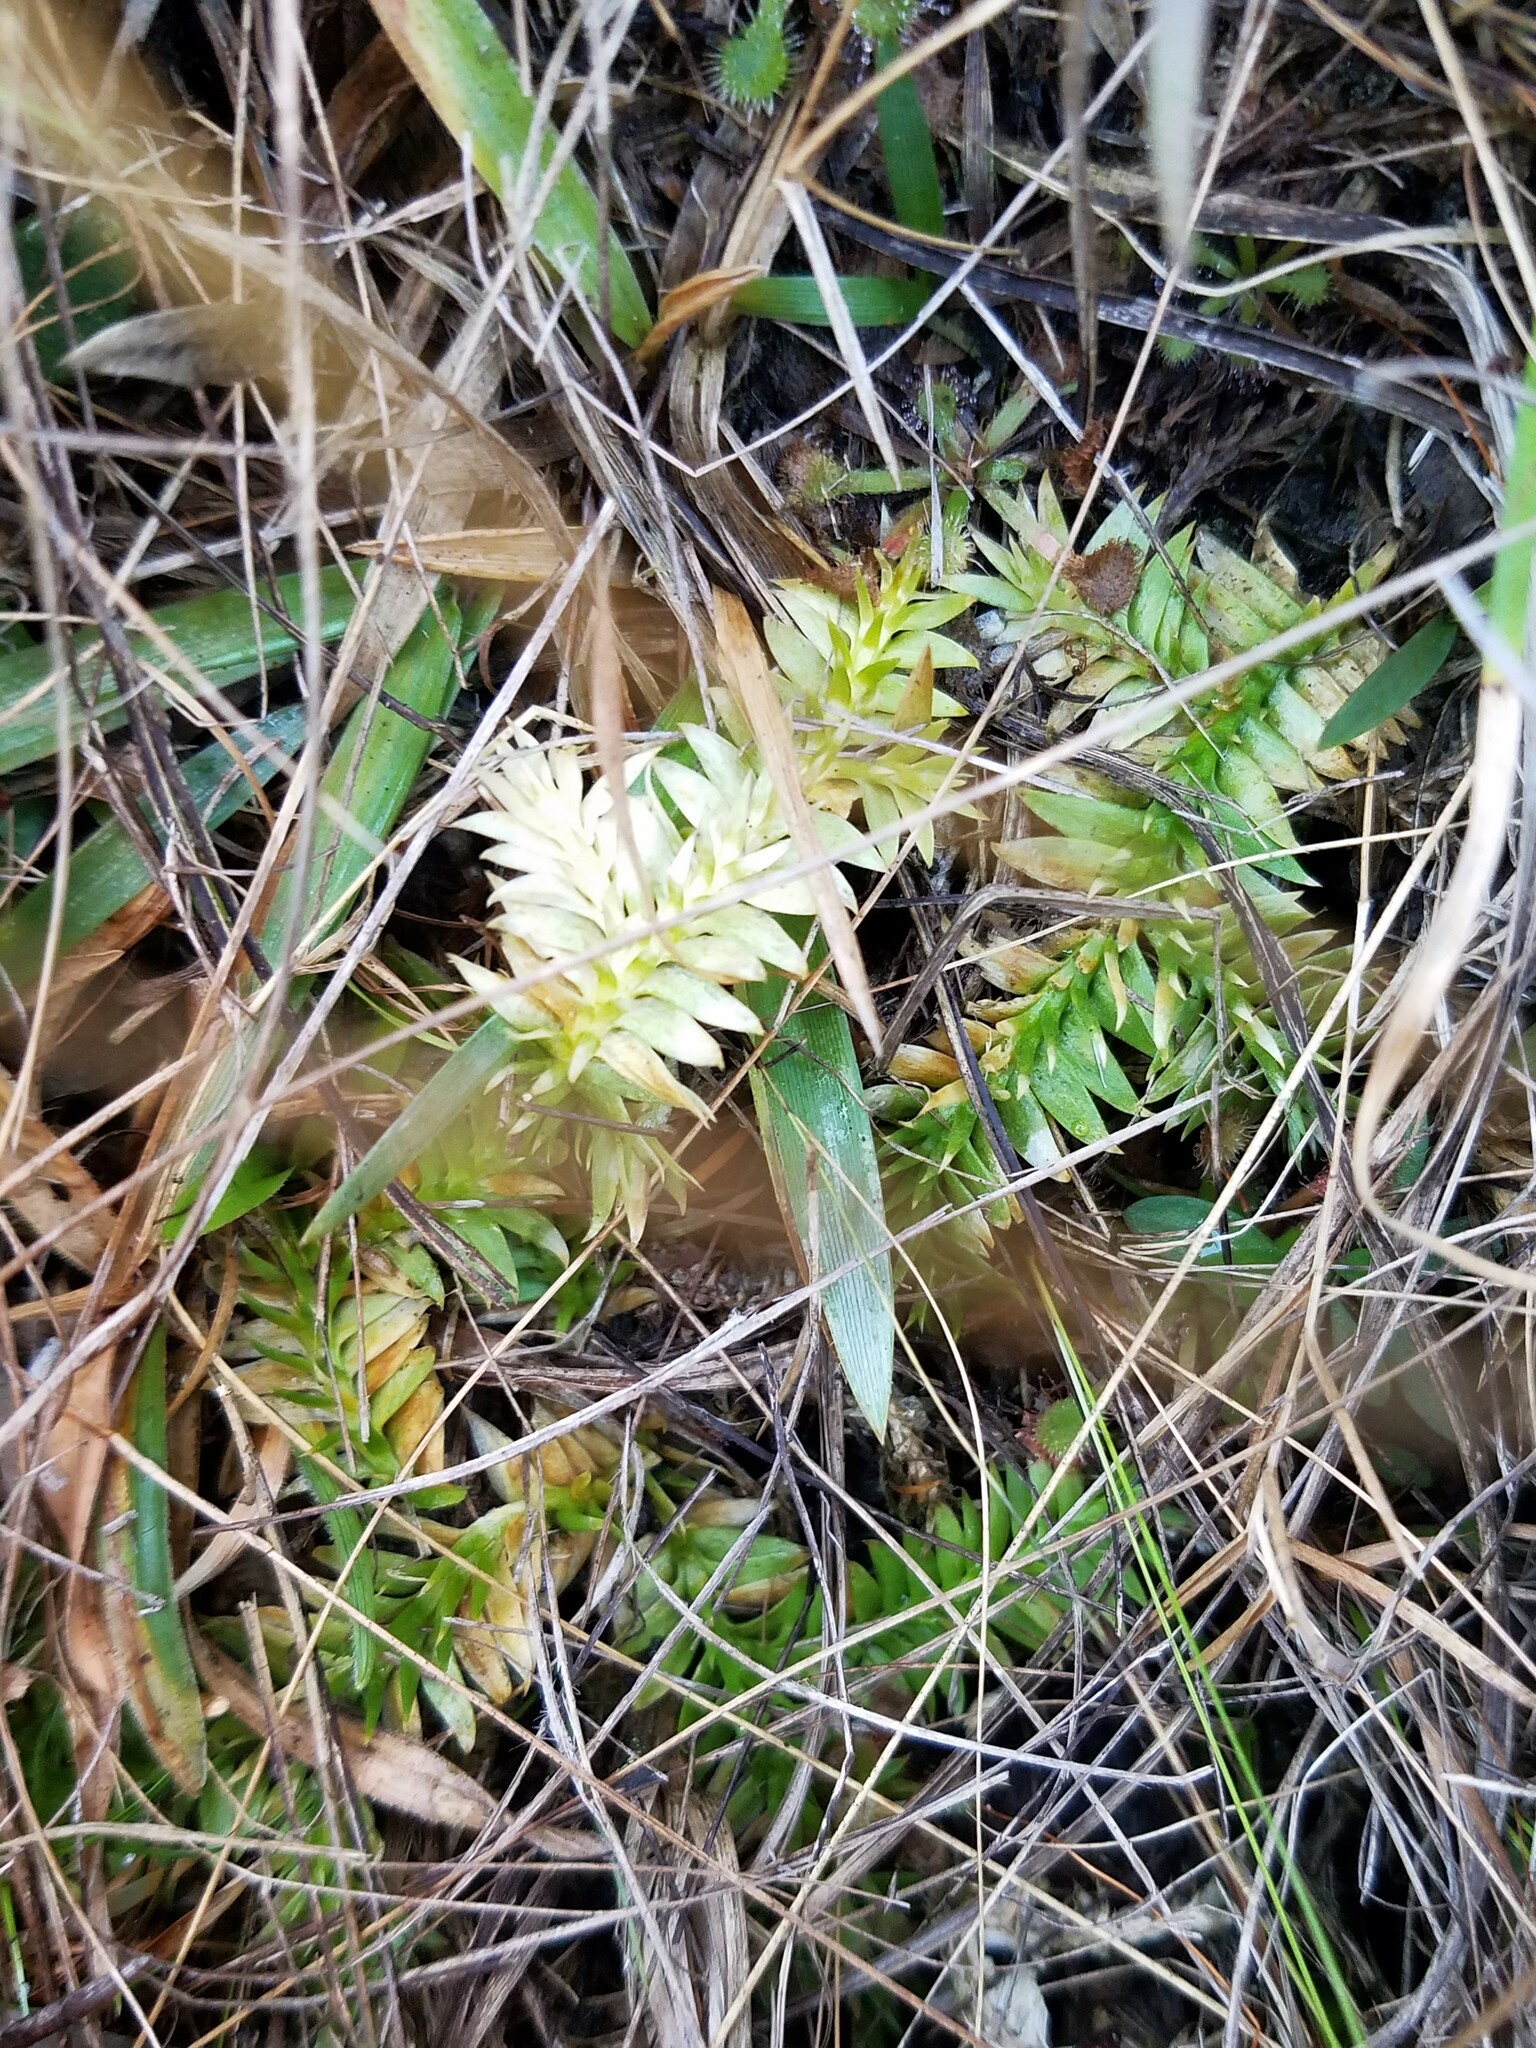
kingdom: Plantae
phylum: Tracheophyta
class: Lycopodiopsida
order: Lycopodiales
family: Lycopodiaceae
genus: Pseudolycopodiella
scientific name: Pseudolycopodiella caroliniana
